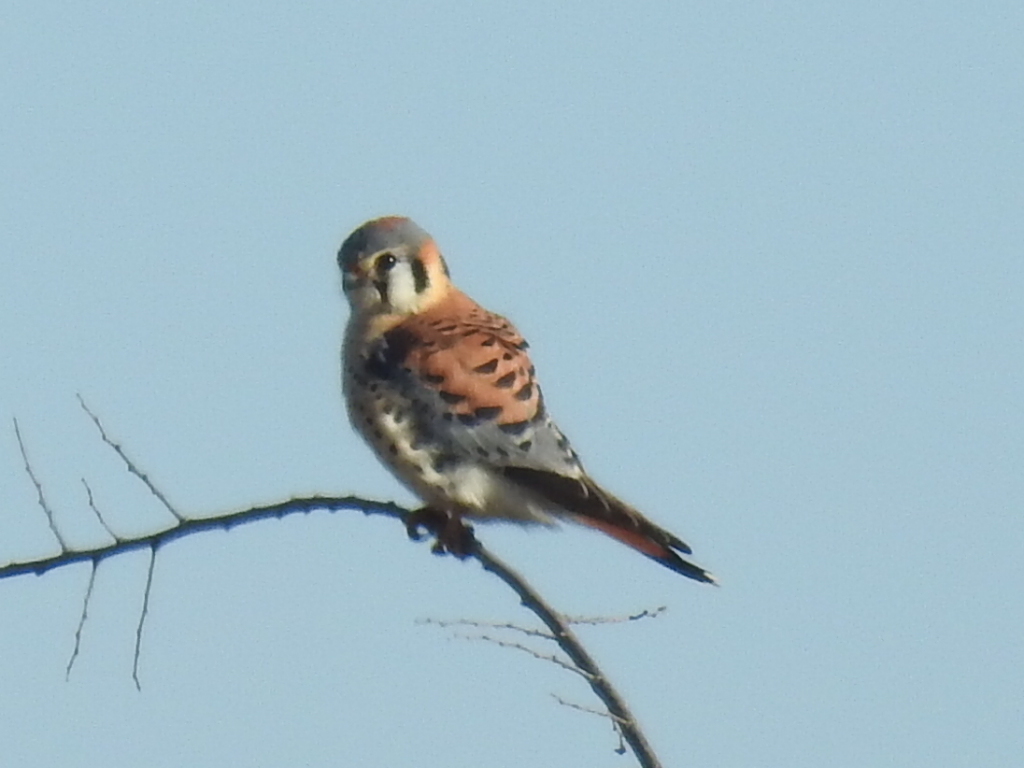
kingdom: Animalia
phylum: Chordata
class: Aves
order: Falconiformes
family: Falconidae
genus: Falco
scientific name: Falco sparverius
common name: American kestrel
